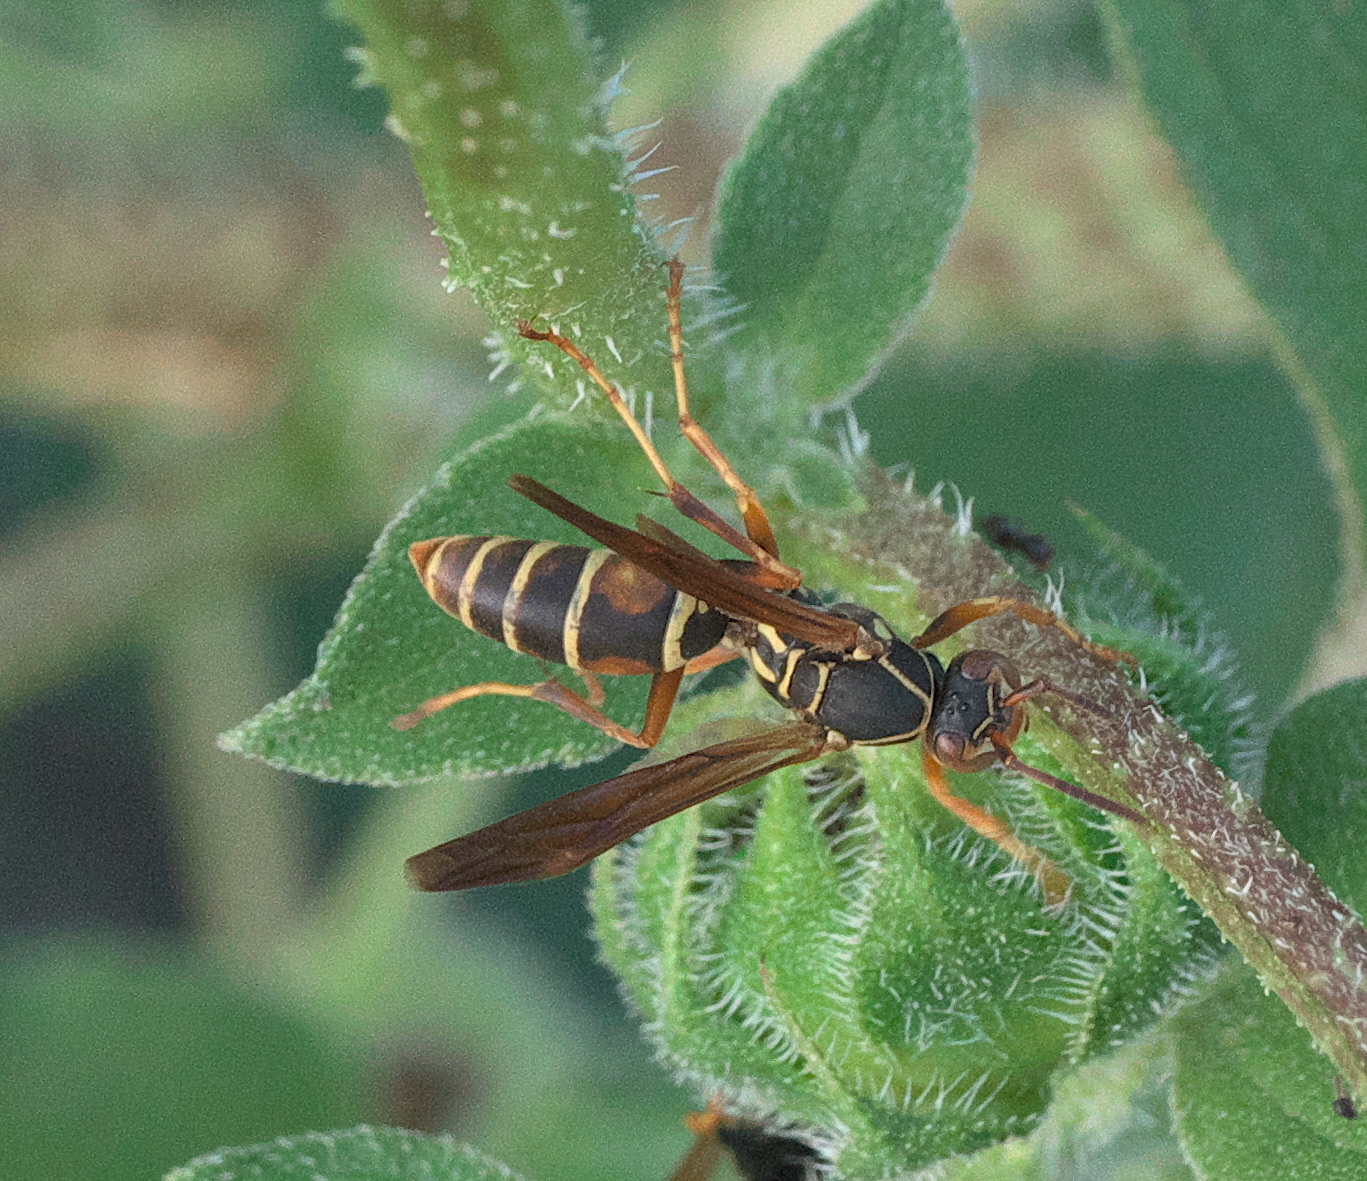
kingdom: Animalia
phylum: Arthropoda
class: Insecta
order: Hymenoptera
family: Eumenidae
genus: Polistes
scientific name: Polistes fuscatus
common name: Dark paper wasp
